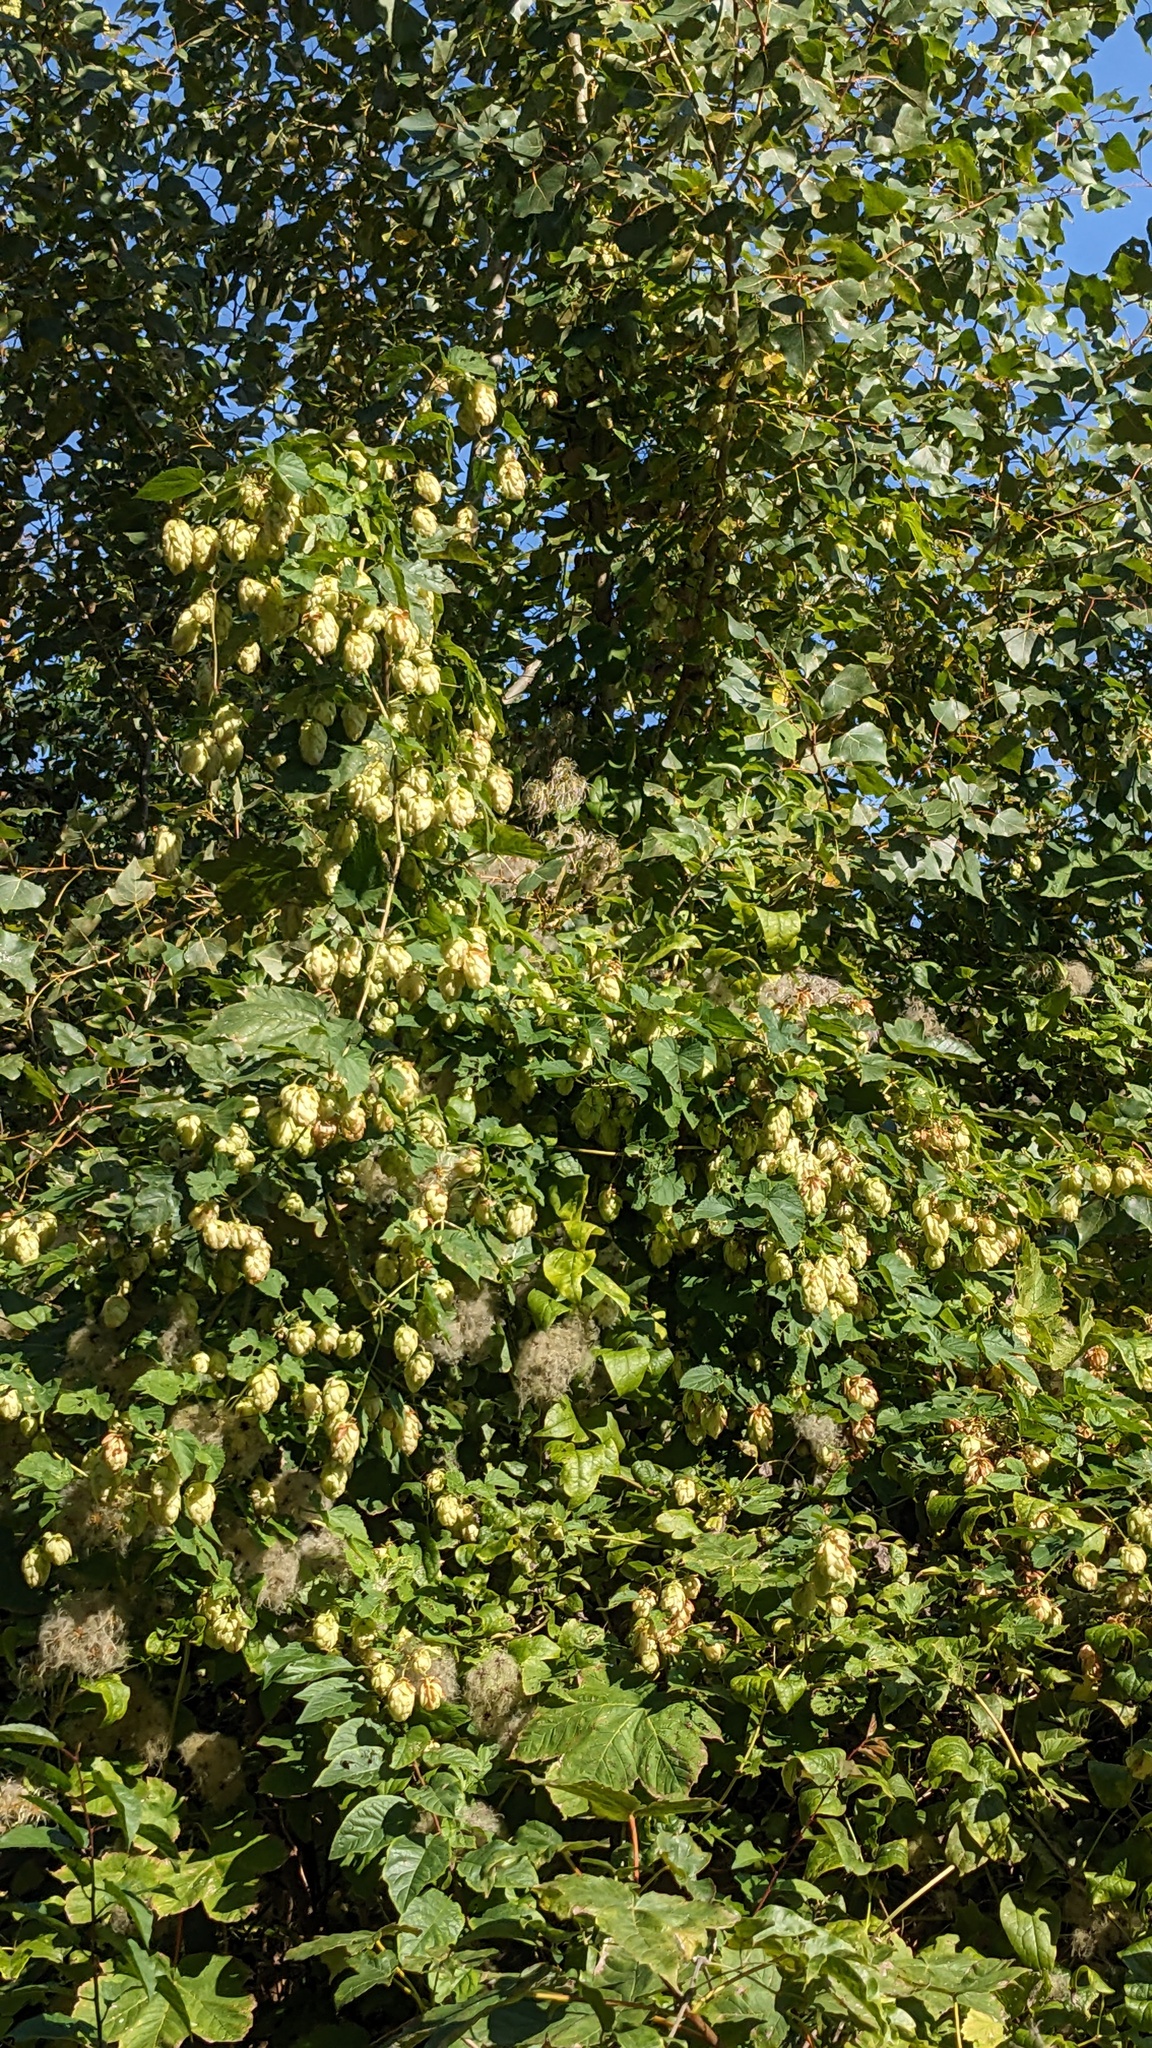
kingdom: Plantae
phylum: Tracheophyta
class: Magnoliopsida
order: Rosales
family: Cannabaceae
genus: Humulus
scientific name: Humulus lupulus
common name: Hop
